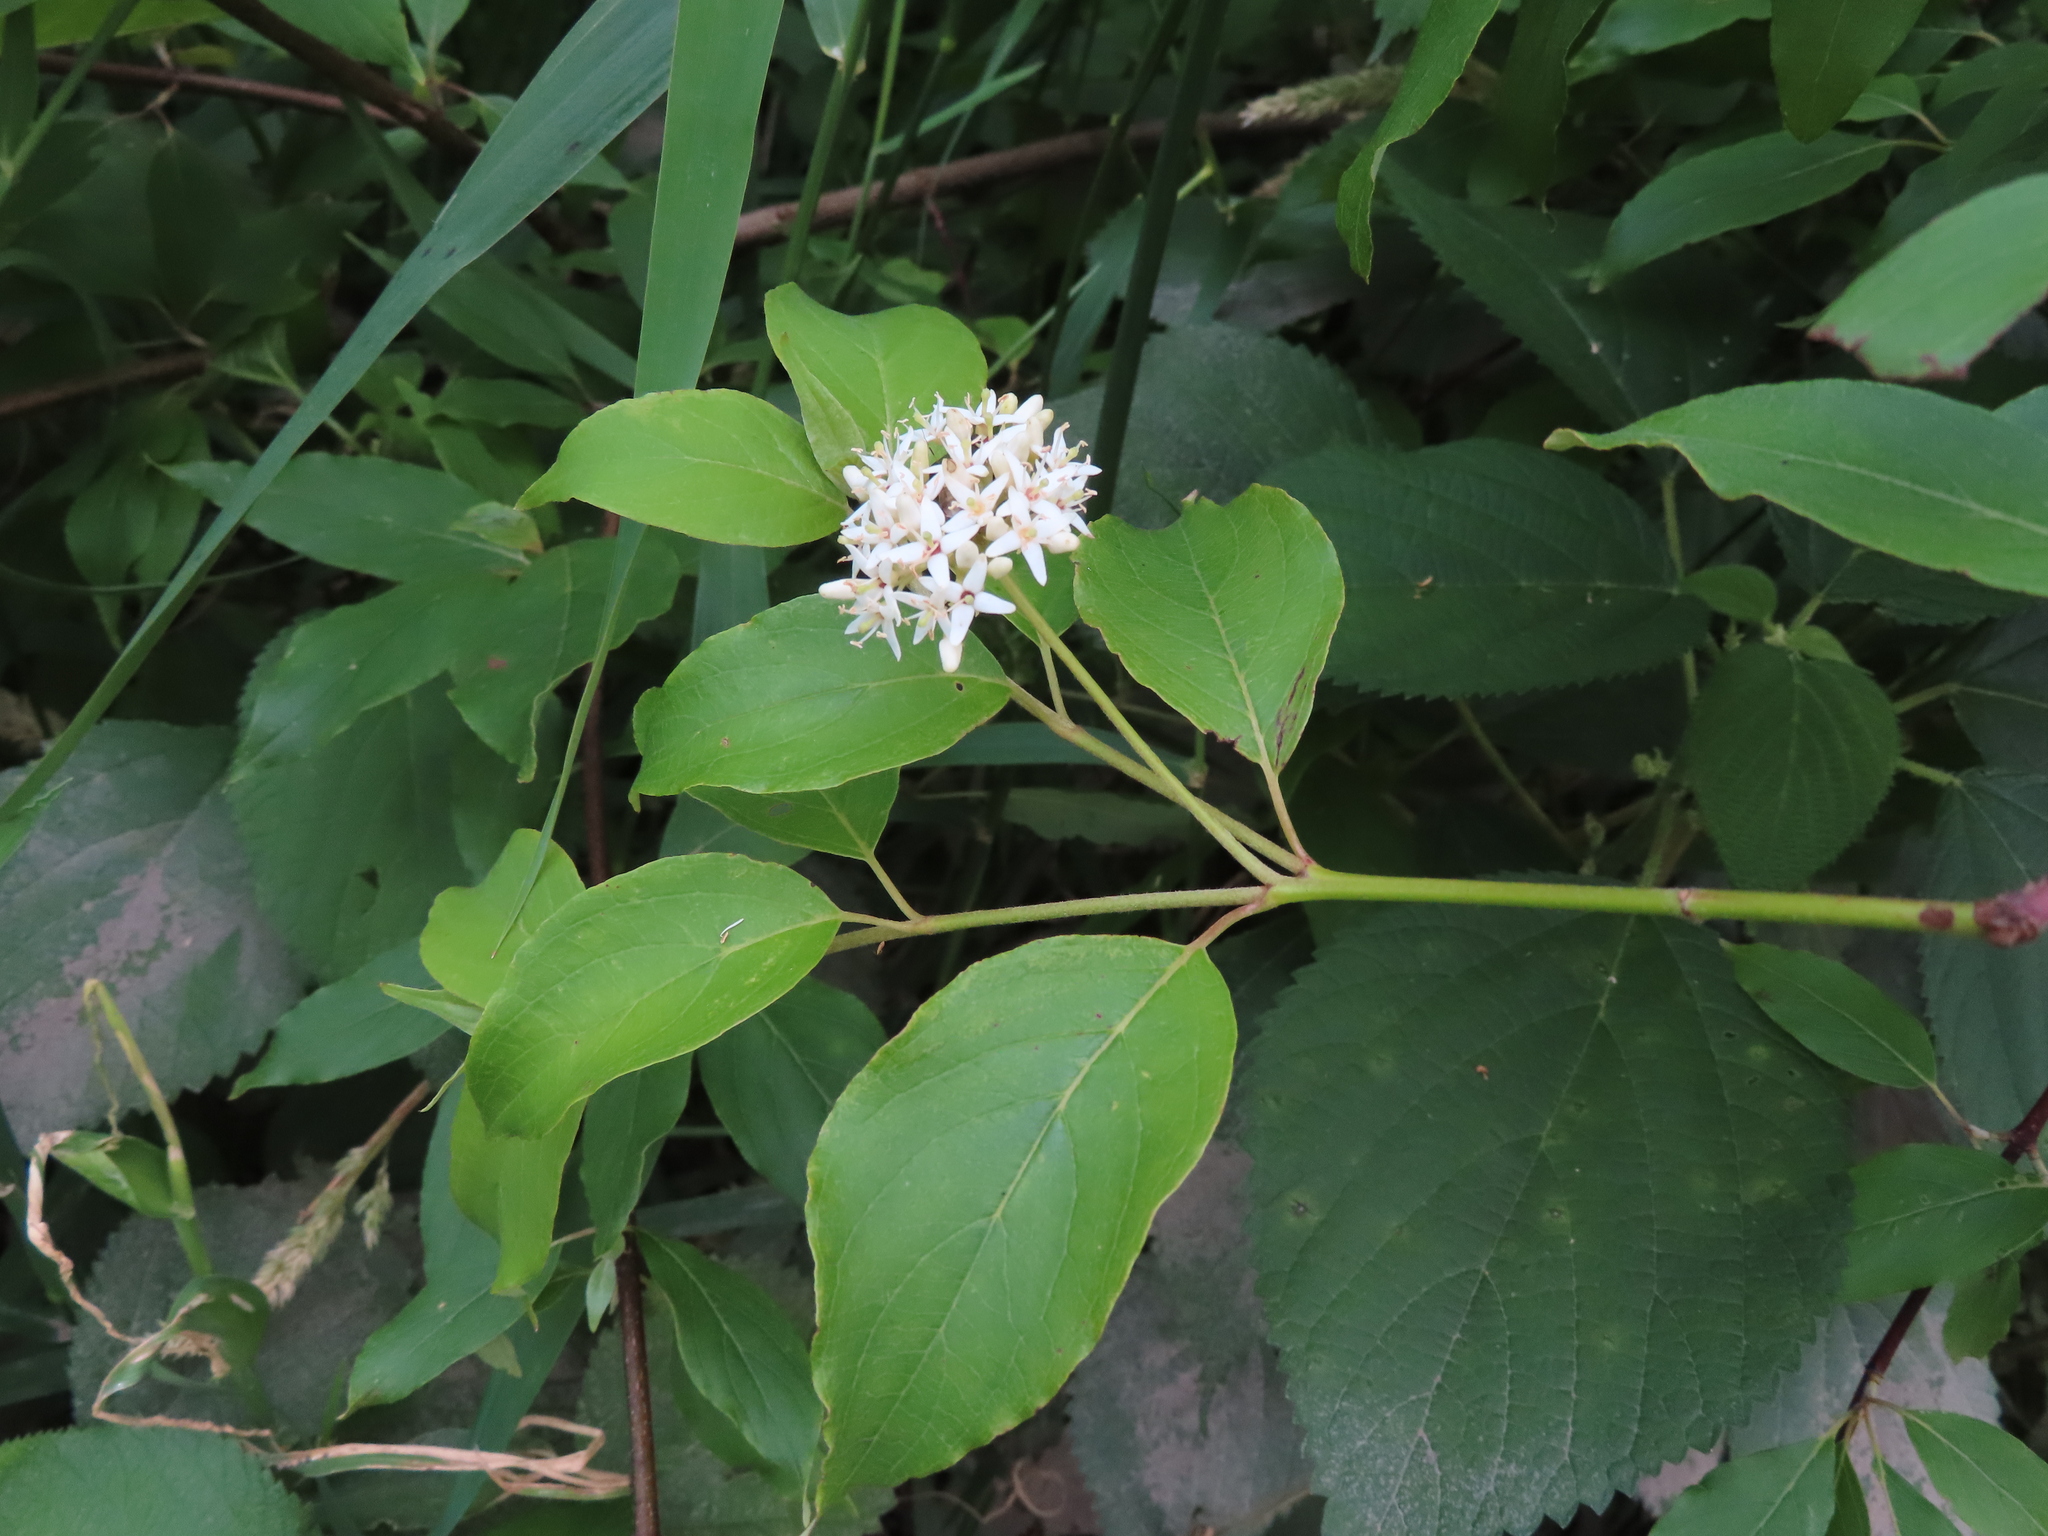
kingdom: Plantae
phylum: Tracheophyta
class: Magnoliopsida
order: Cornales
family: Cornaceae
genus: Cornus
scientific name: Cornus amomum
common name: Silky dogwood
